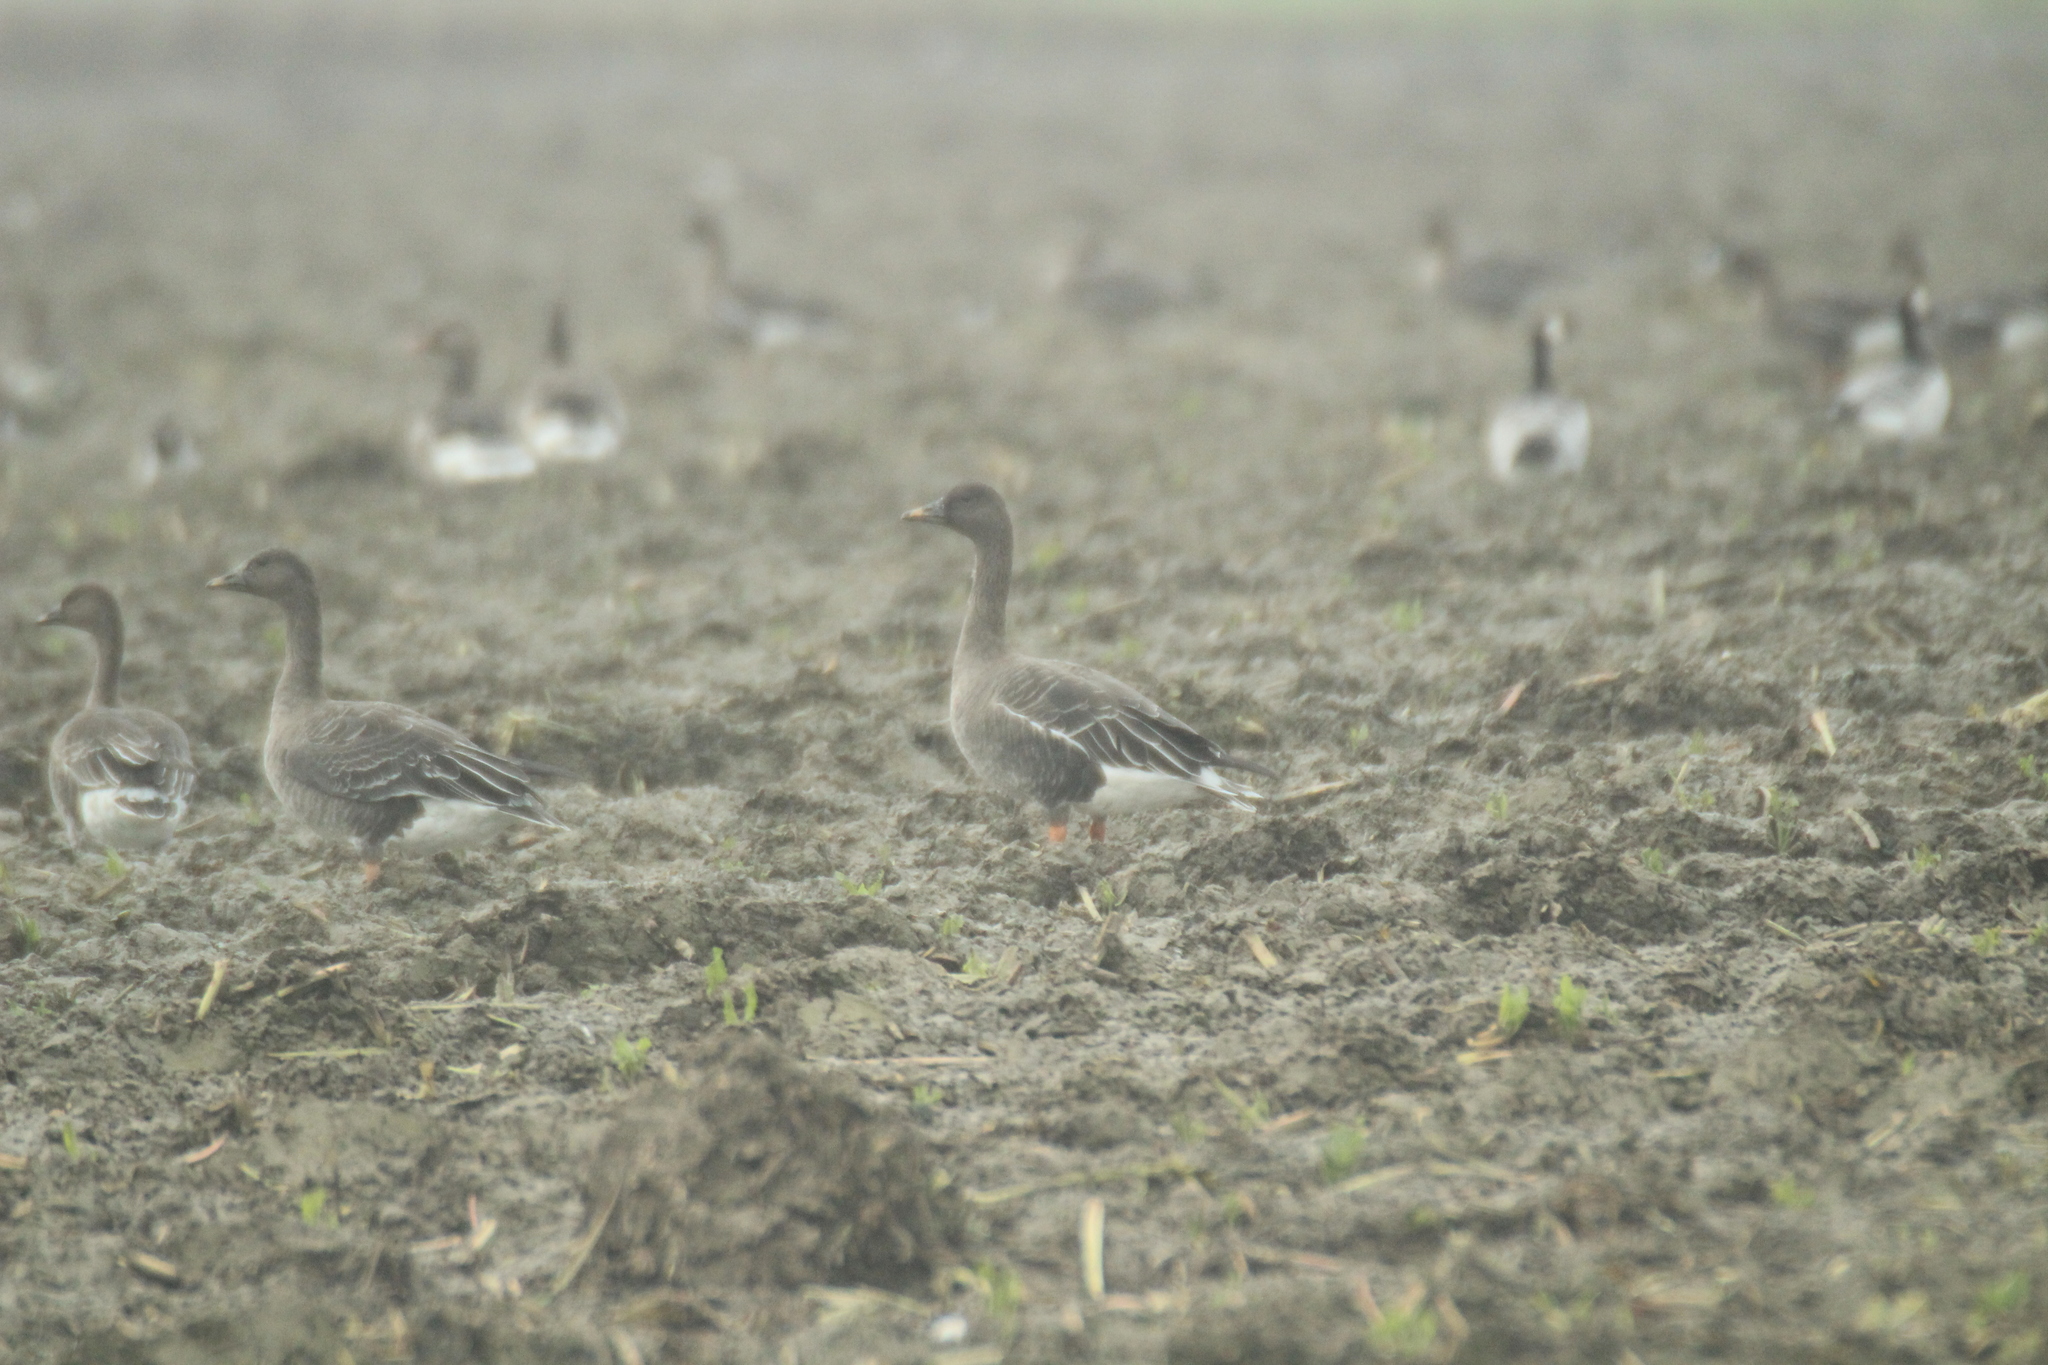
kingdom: Animalia
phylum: Chordata
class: Aves
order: Anseriformes
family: Anatidae
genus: Anser
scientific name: Anser serrirostris
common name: Tundra bean goose
